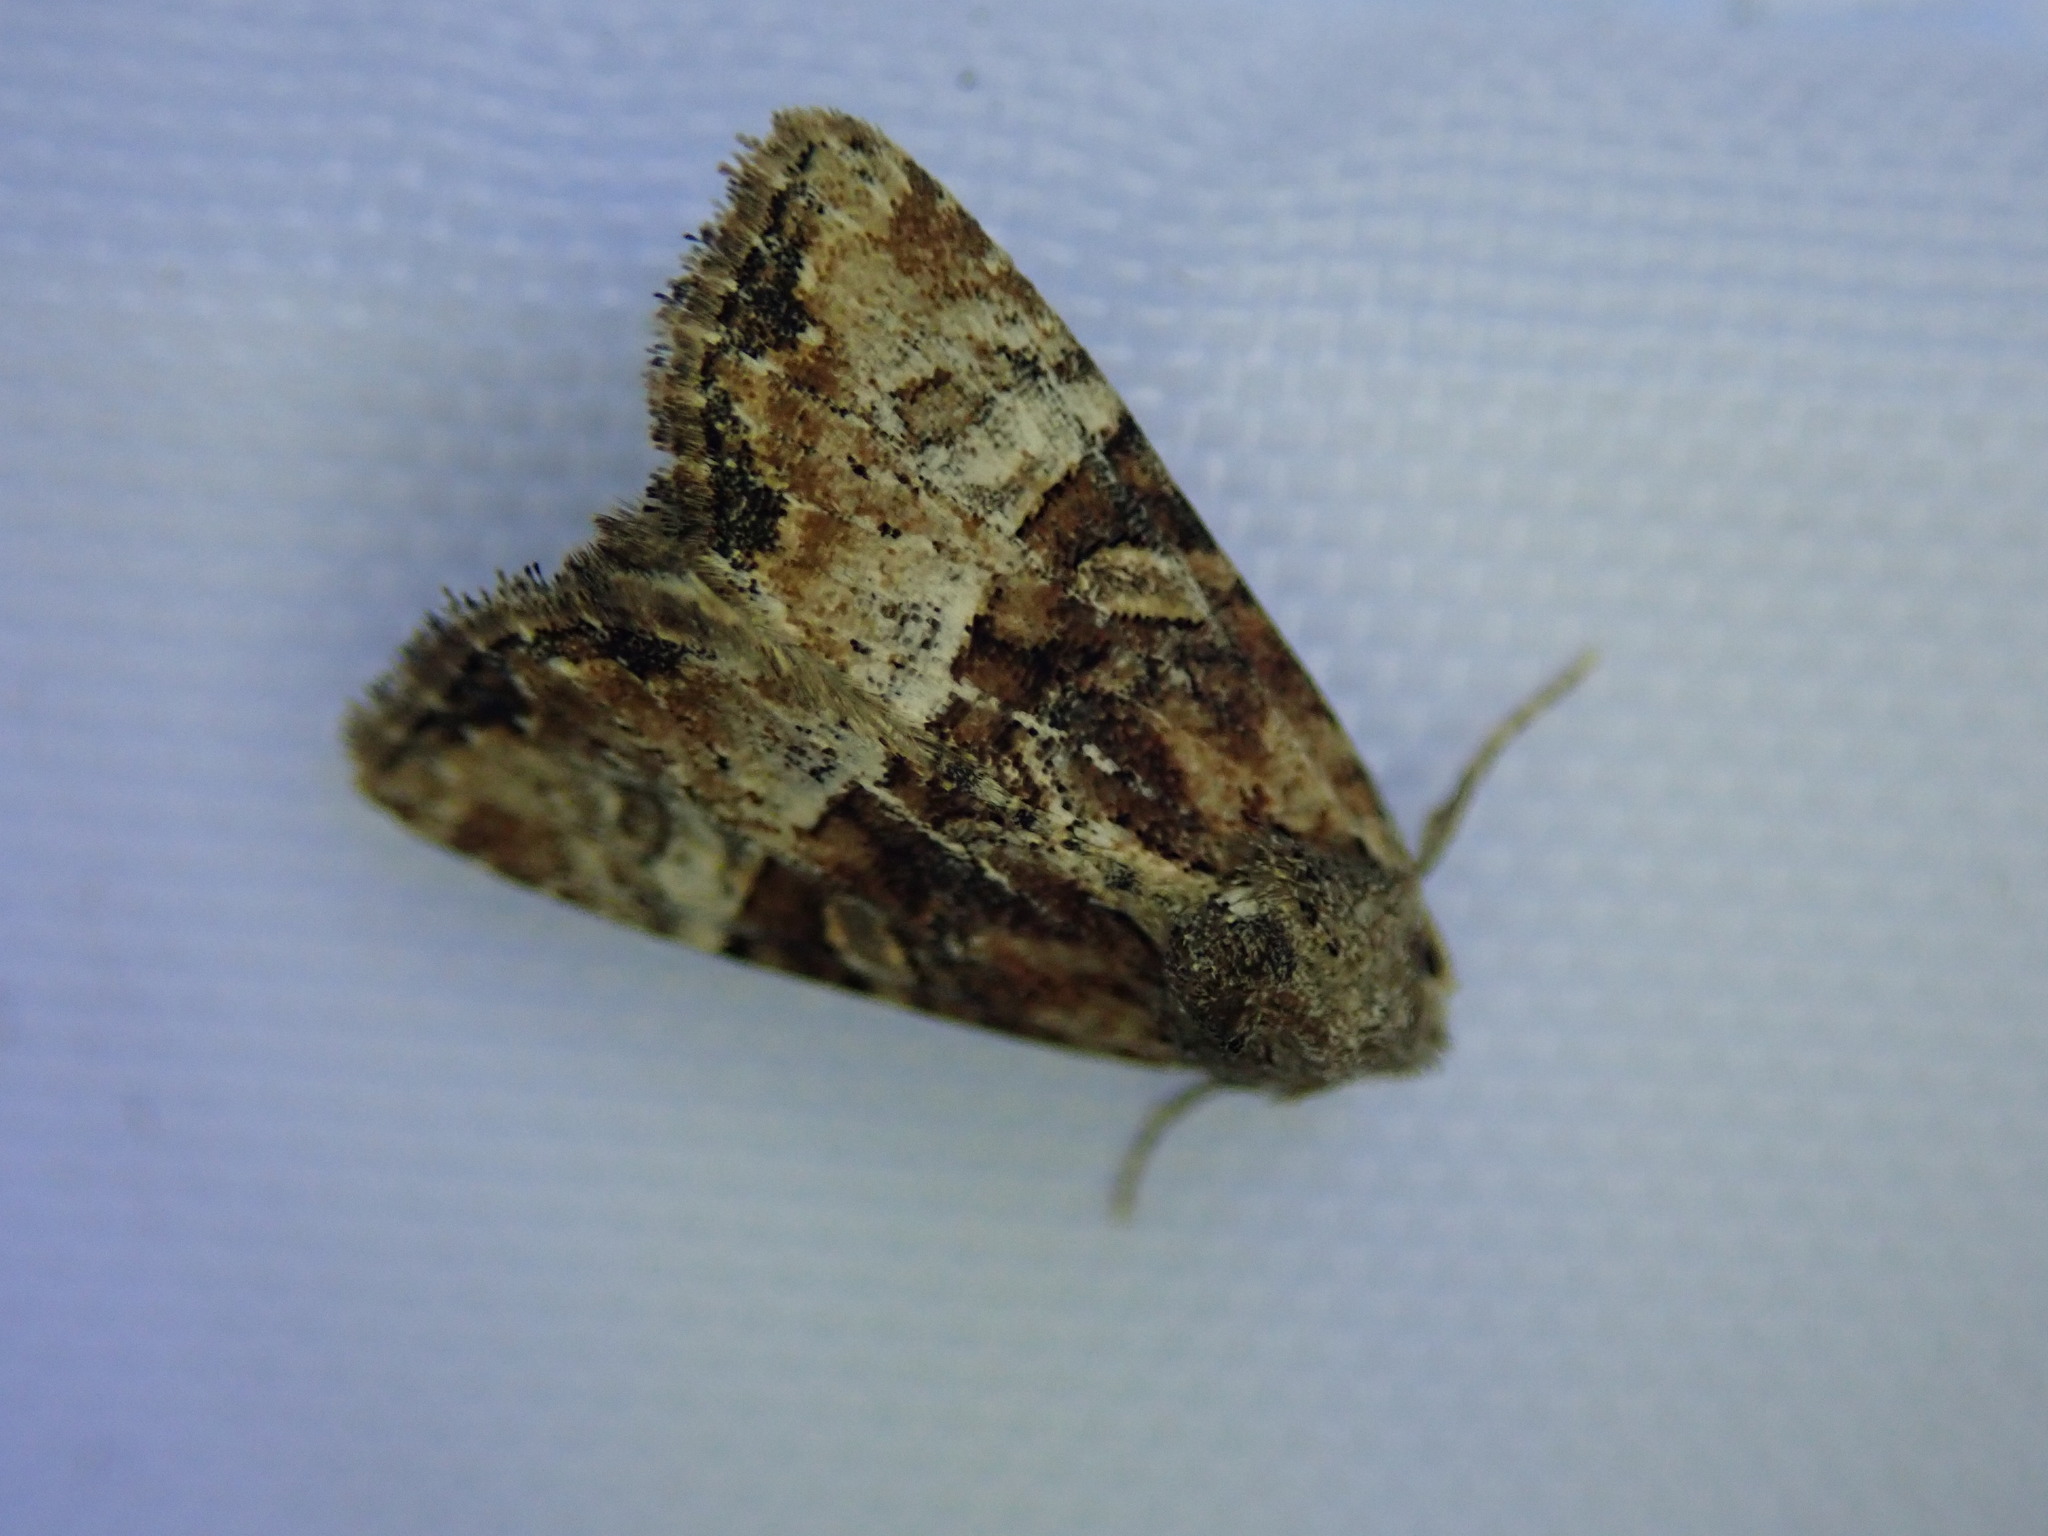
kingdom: Animalia
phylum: Arthropoda
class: Insecta
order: Lepidoptera
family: Noctuidae
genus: Mesoligia
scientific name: Mesoligia furuncula
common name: Cloaked minor
